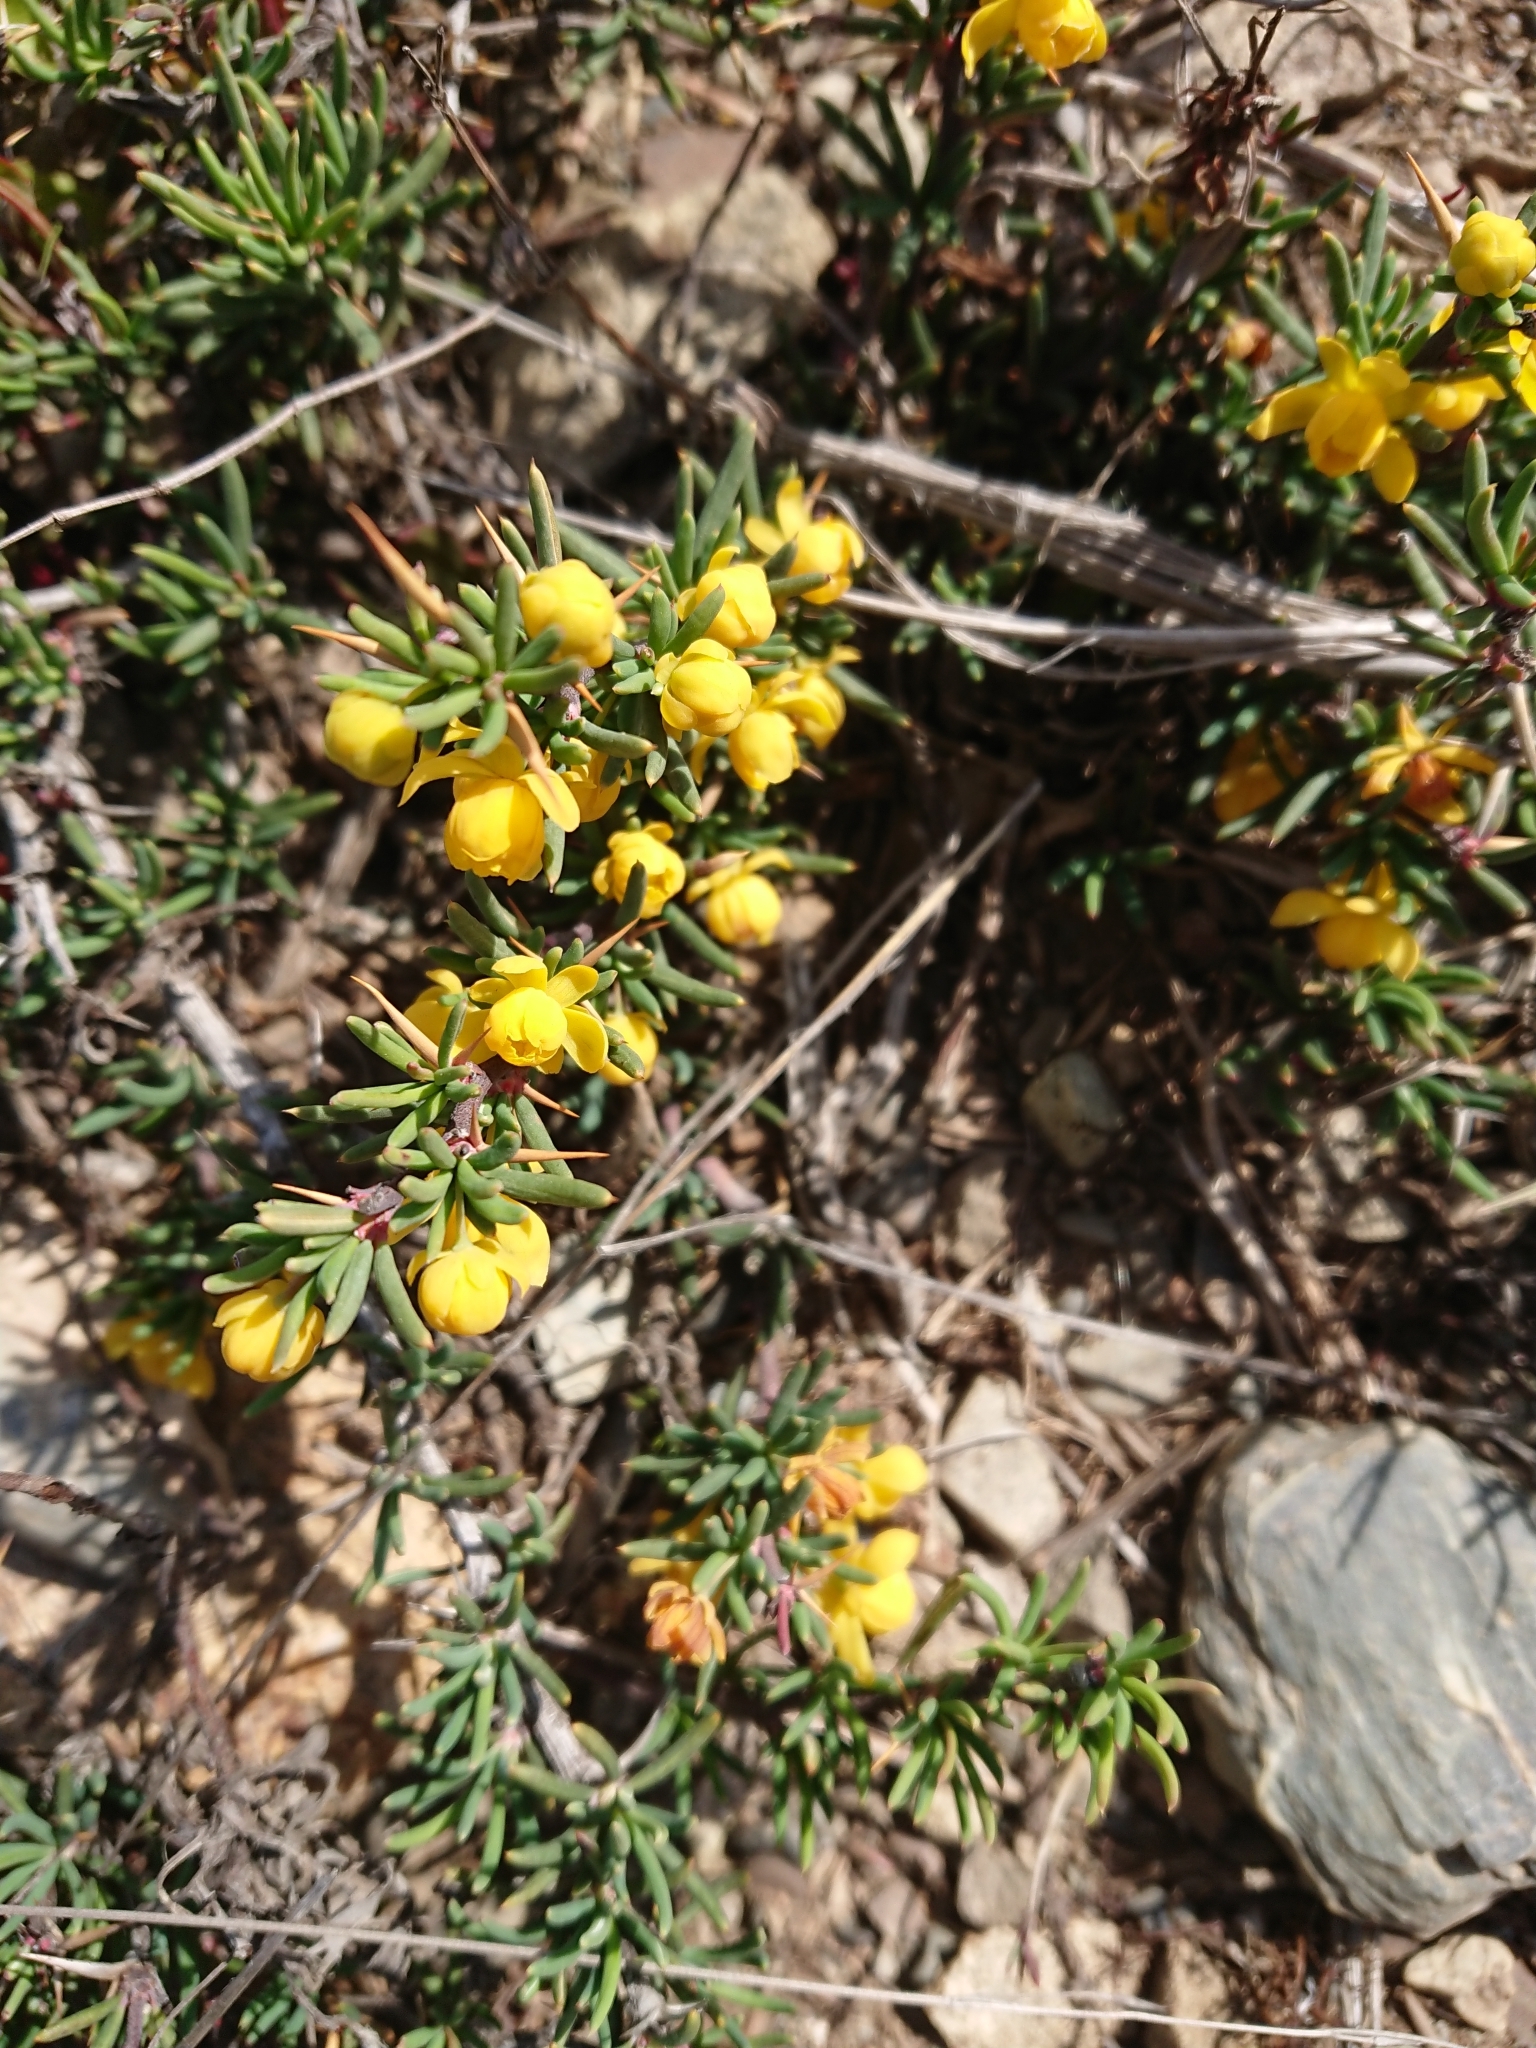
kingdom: Plantae
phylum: Tracheophyta
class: Magnoliopsida
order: Ranunculales
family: Berberidaceae
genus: Berberis
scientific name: Berberis empetrifolia
